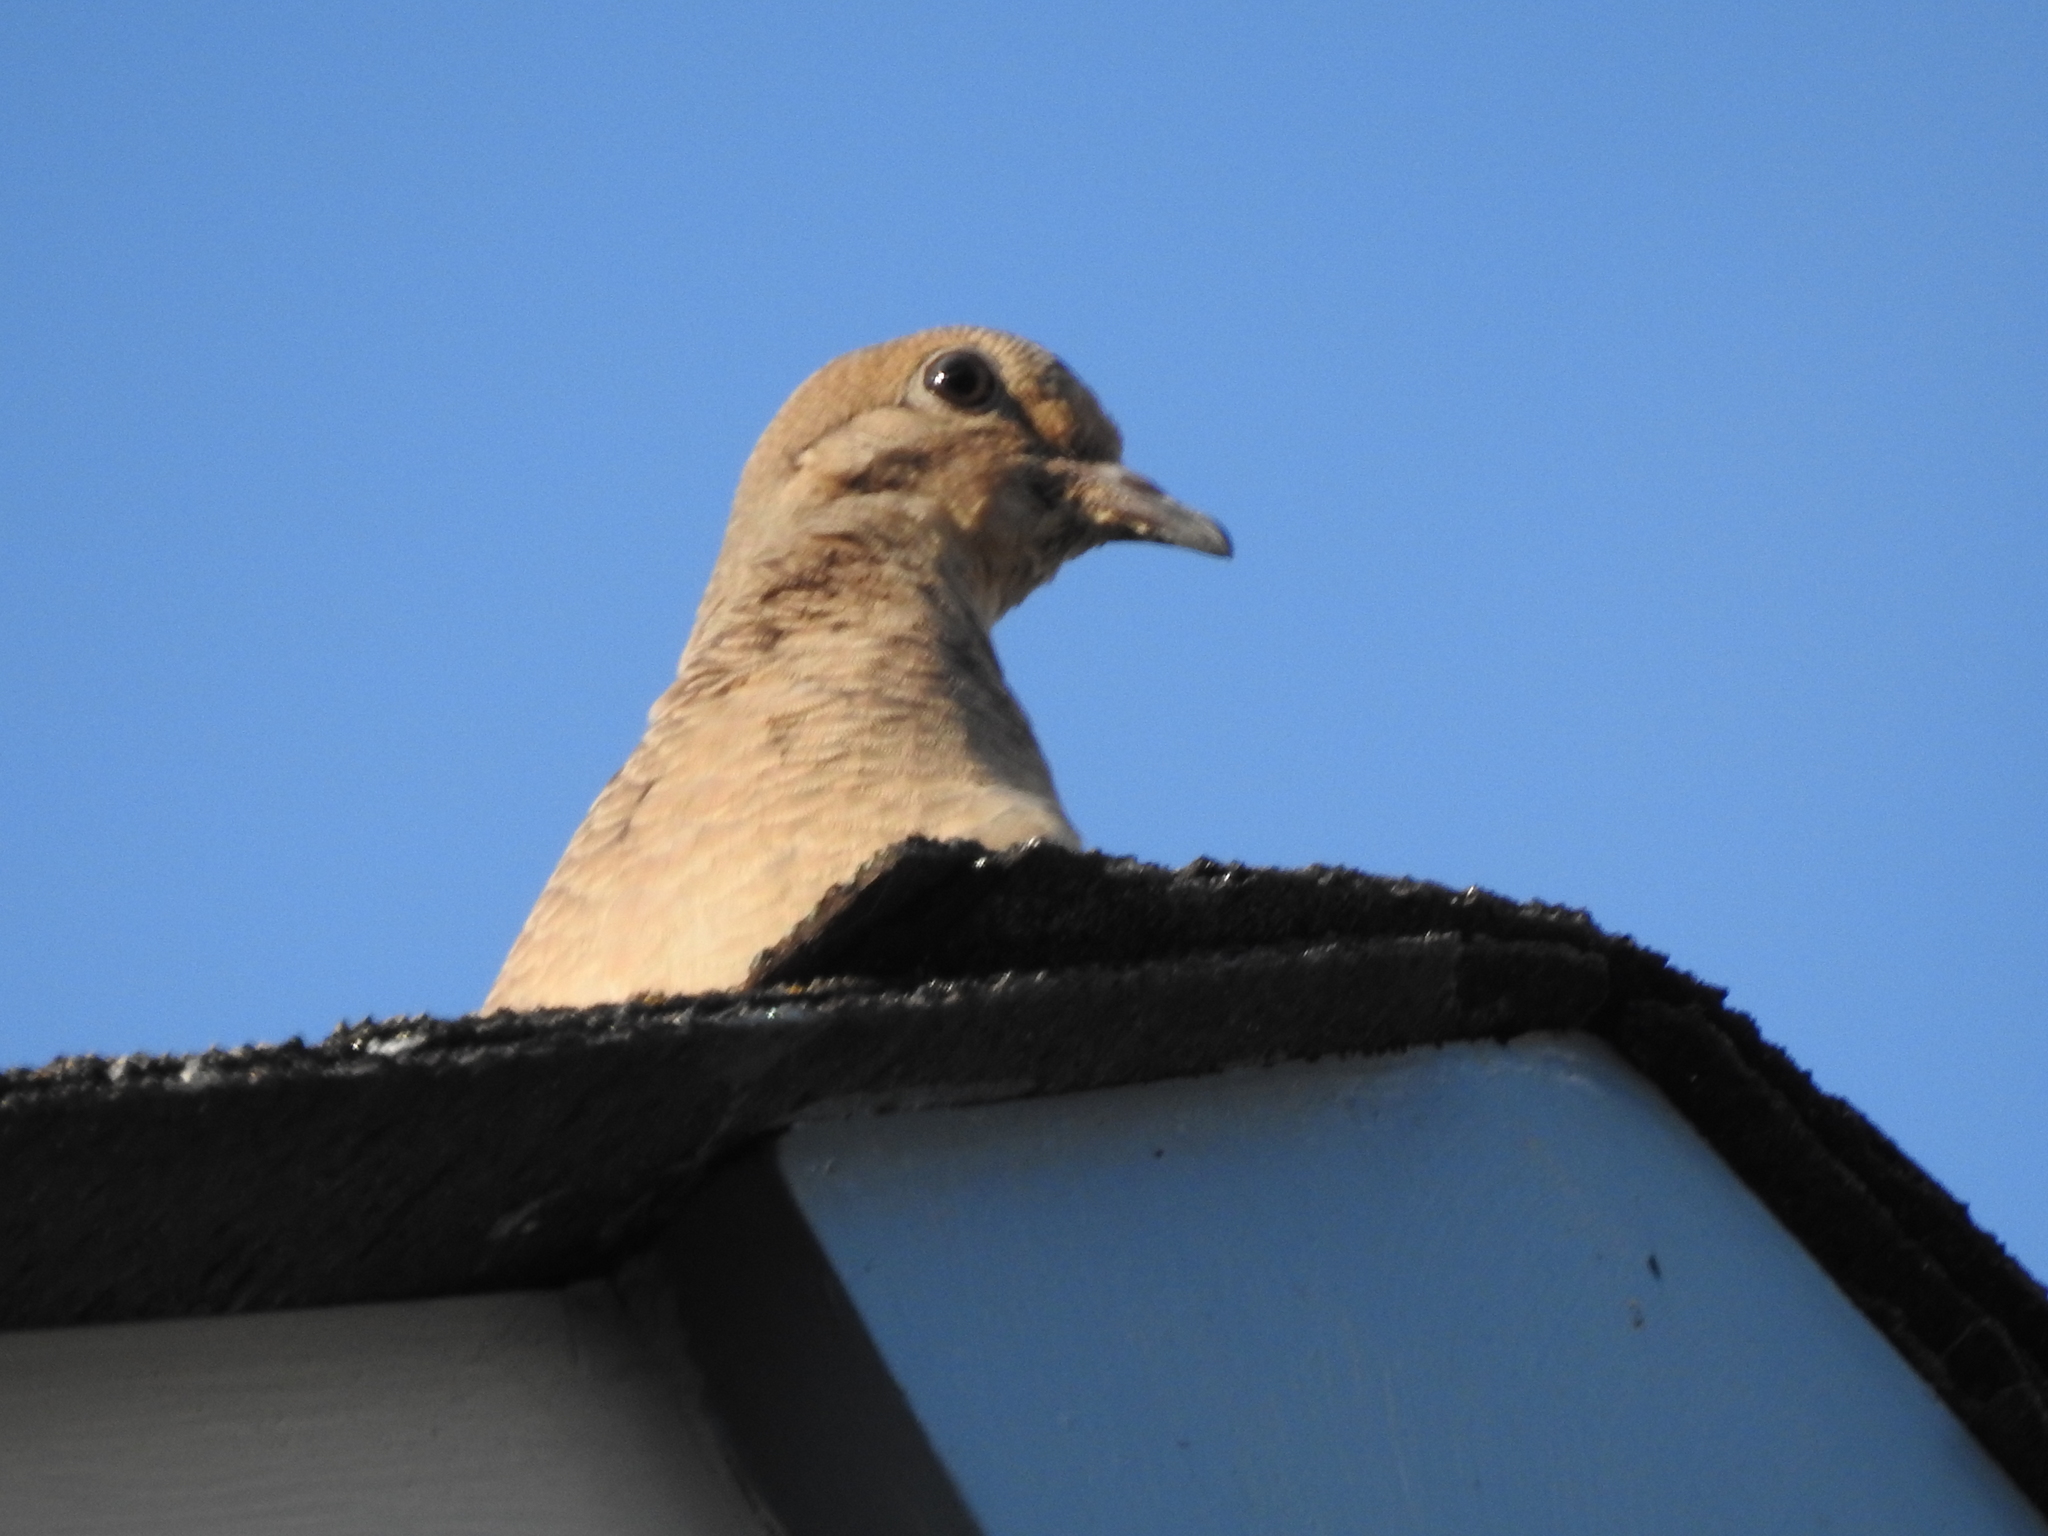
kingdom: Animalia
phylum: Chordata
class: Aves
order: Columbiformes
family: Columbidae
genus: Zenaida
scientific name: Zenaida macroura
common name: Mourning dove
